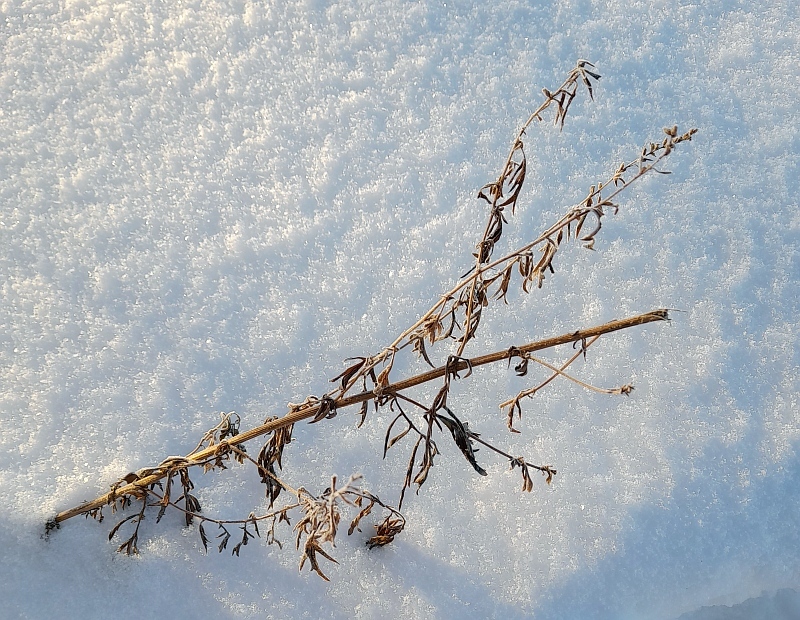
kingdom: Plantae
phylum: Tracheophyta
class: Magnoliopsida
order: Asterales
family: Asteraceae
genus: Artemisia
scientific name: Artemisia vulgaris
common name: Mugwort
